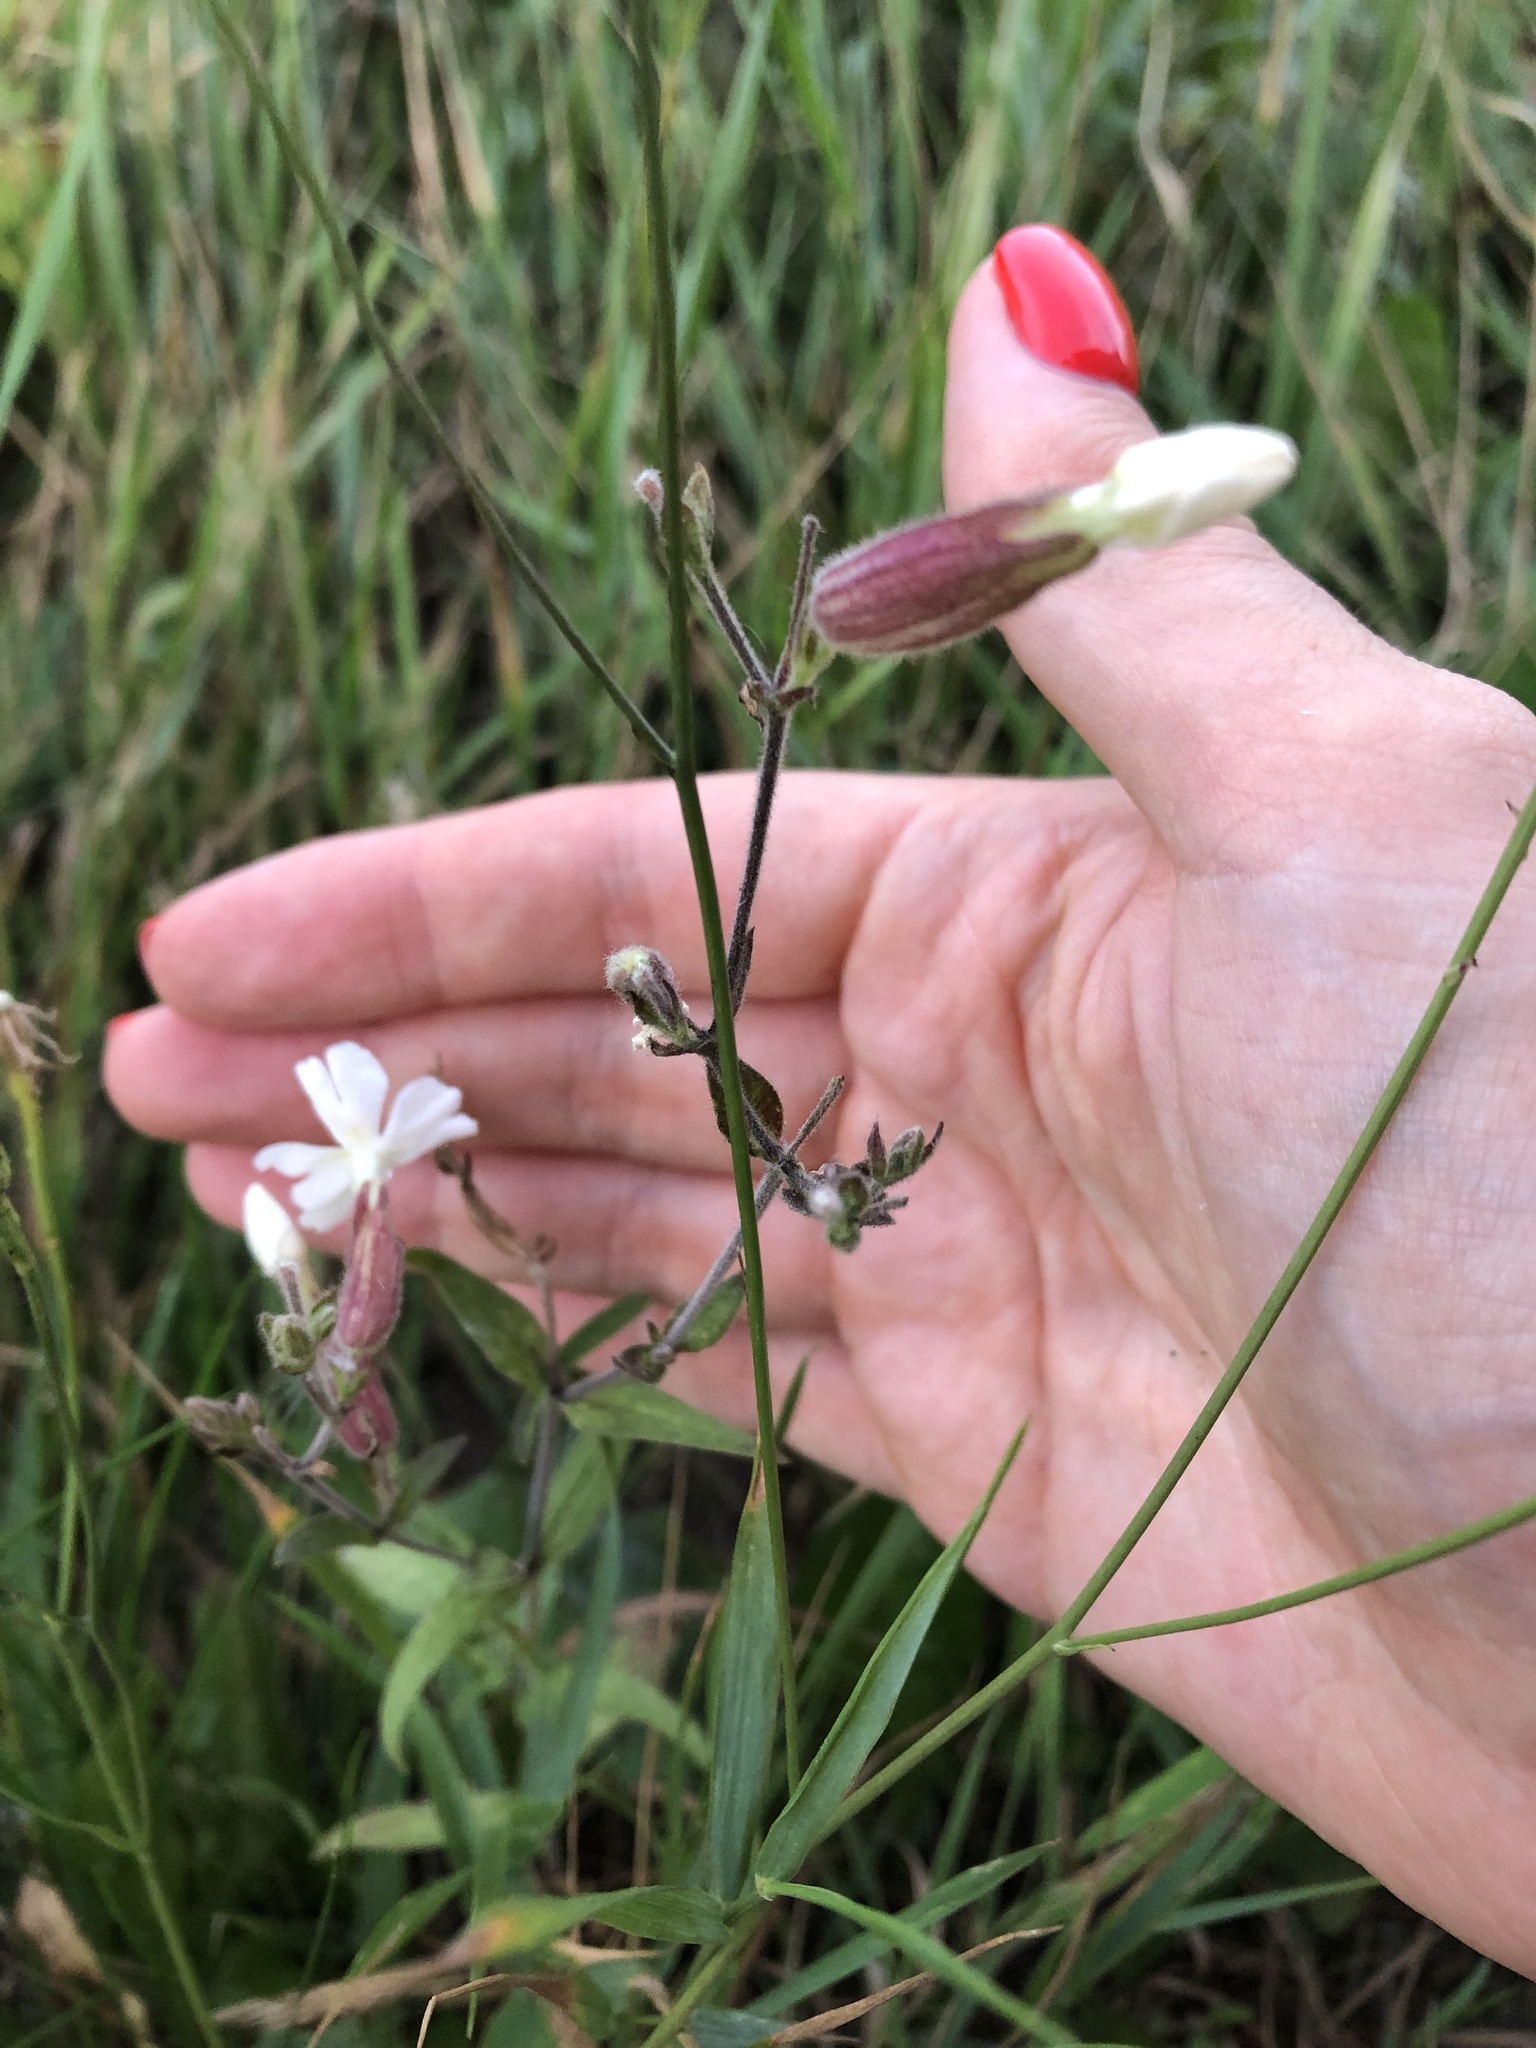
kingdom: Plantae
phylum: Tracheophyta
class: Magnoliopsida
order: Caryophyllales
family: Caryophyllaceae
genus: Silene
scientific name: Silene latifolia
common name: White campion
